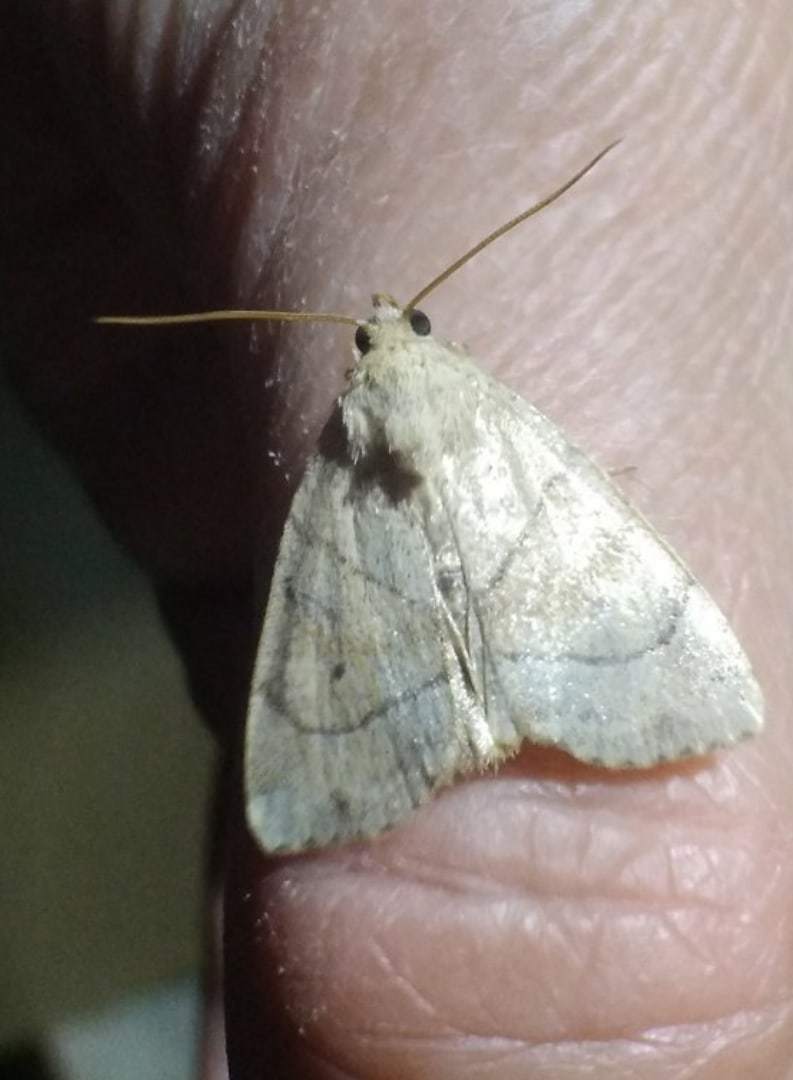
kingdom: Animalia
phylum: Arthropoda
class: Insecta
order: Lepidoptera
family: Noctuidae
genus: Cosmia
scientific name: Cosmia trapezina
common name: Dun-bar
